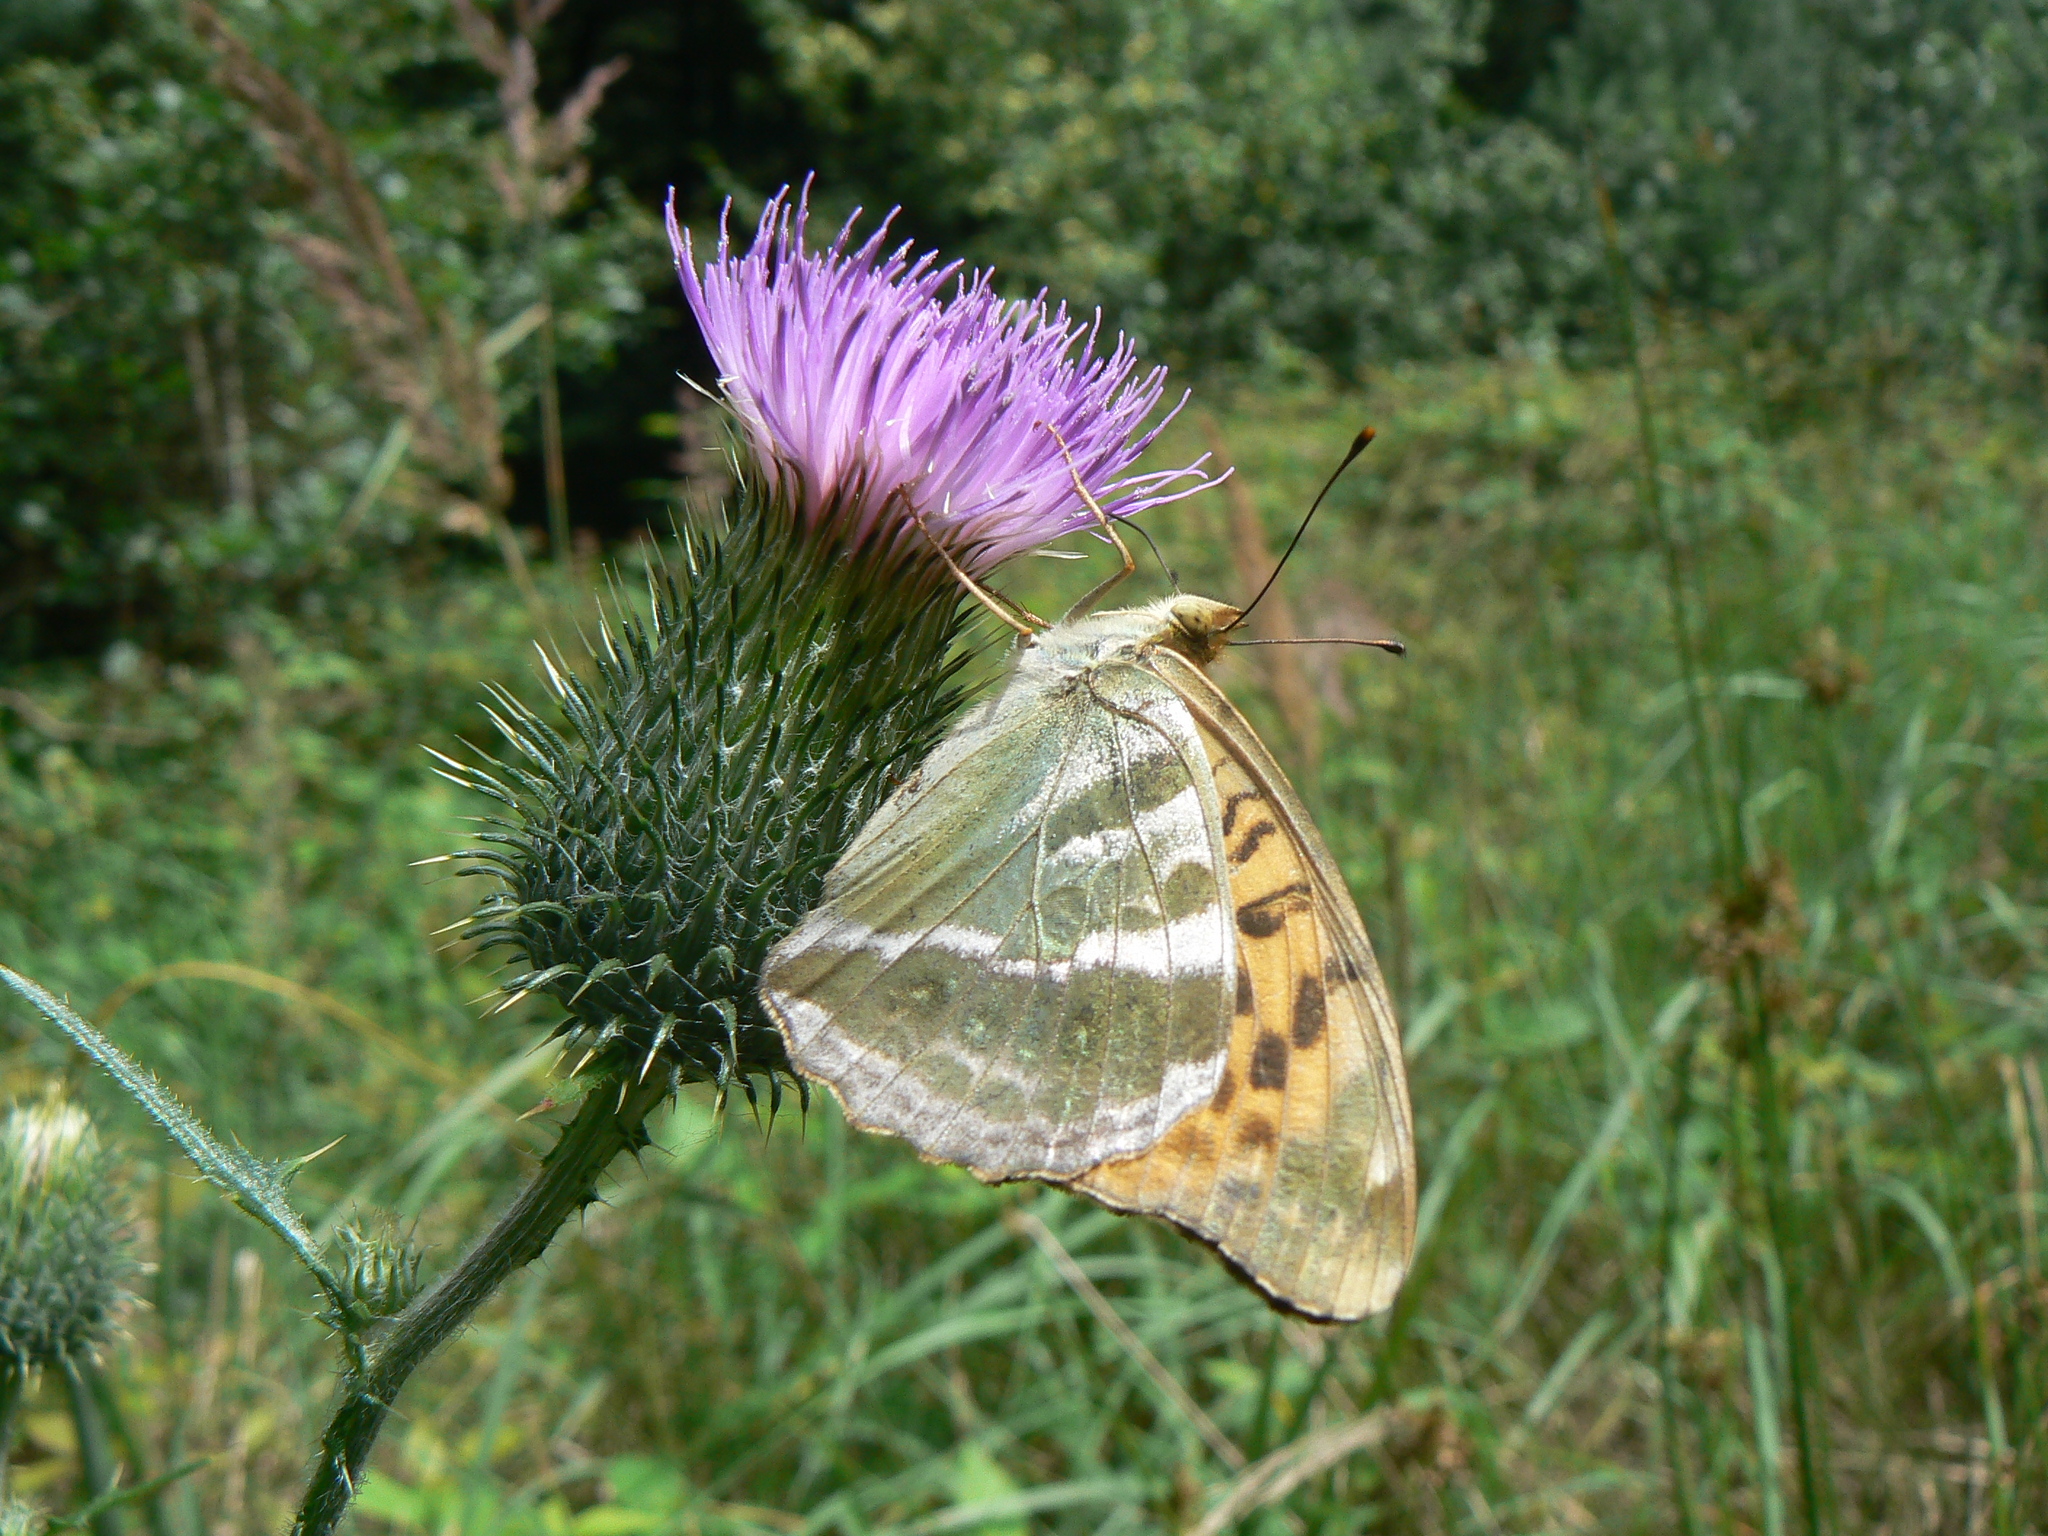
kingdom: Animalia
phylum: Arthropoda
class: Insecta
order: Lepidoptera
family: Nymphalidae
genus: Argynnis
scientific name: Argynnis paphia
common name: Silver-washed fritillary
